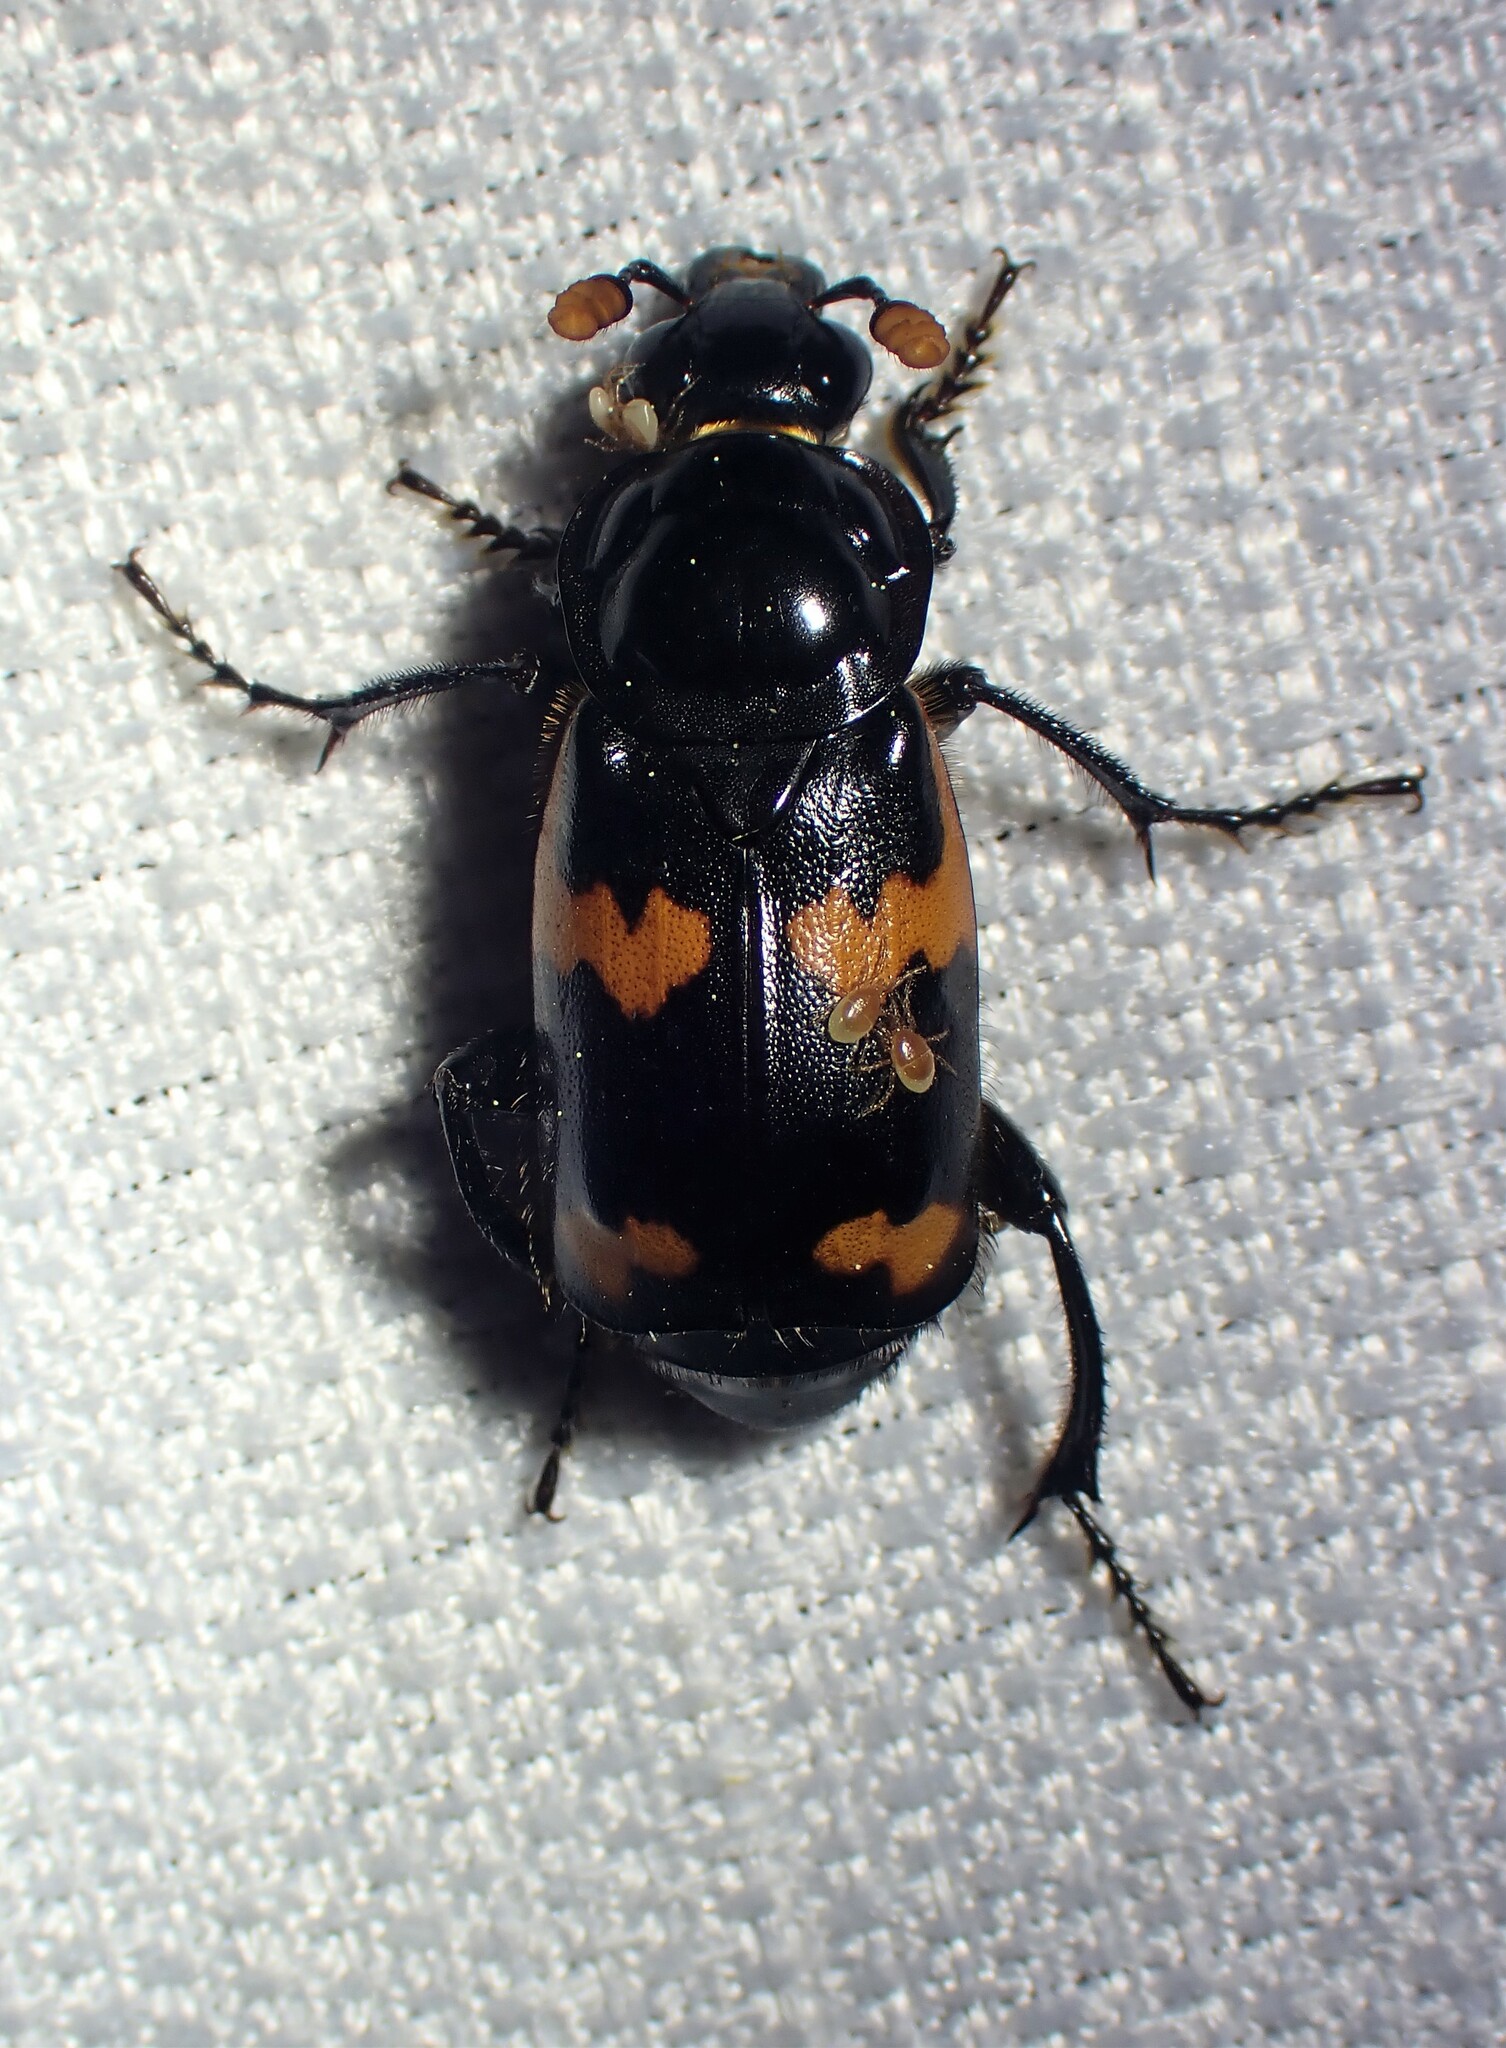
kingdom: Animalia
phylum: Arthropoda
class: Insecta
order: Coleoptera
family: Staphylinidae
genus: Nicrophorus
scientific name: Nicrophorus sayi
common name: Say's burying beetle
